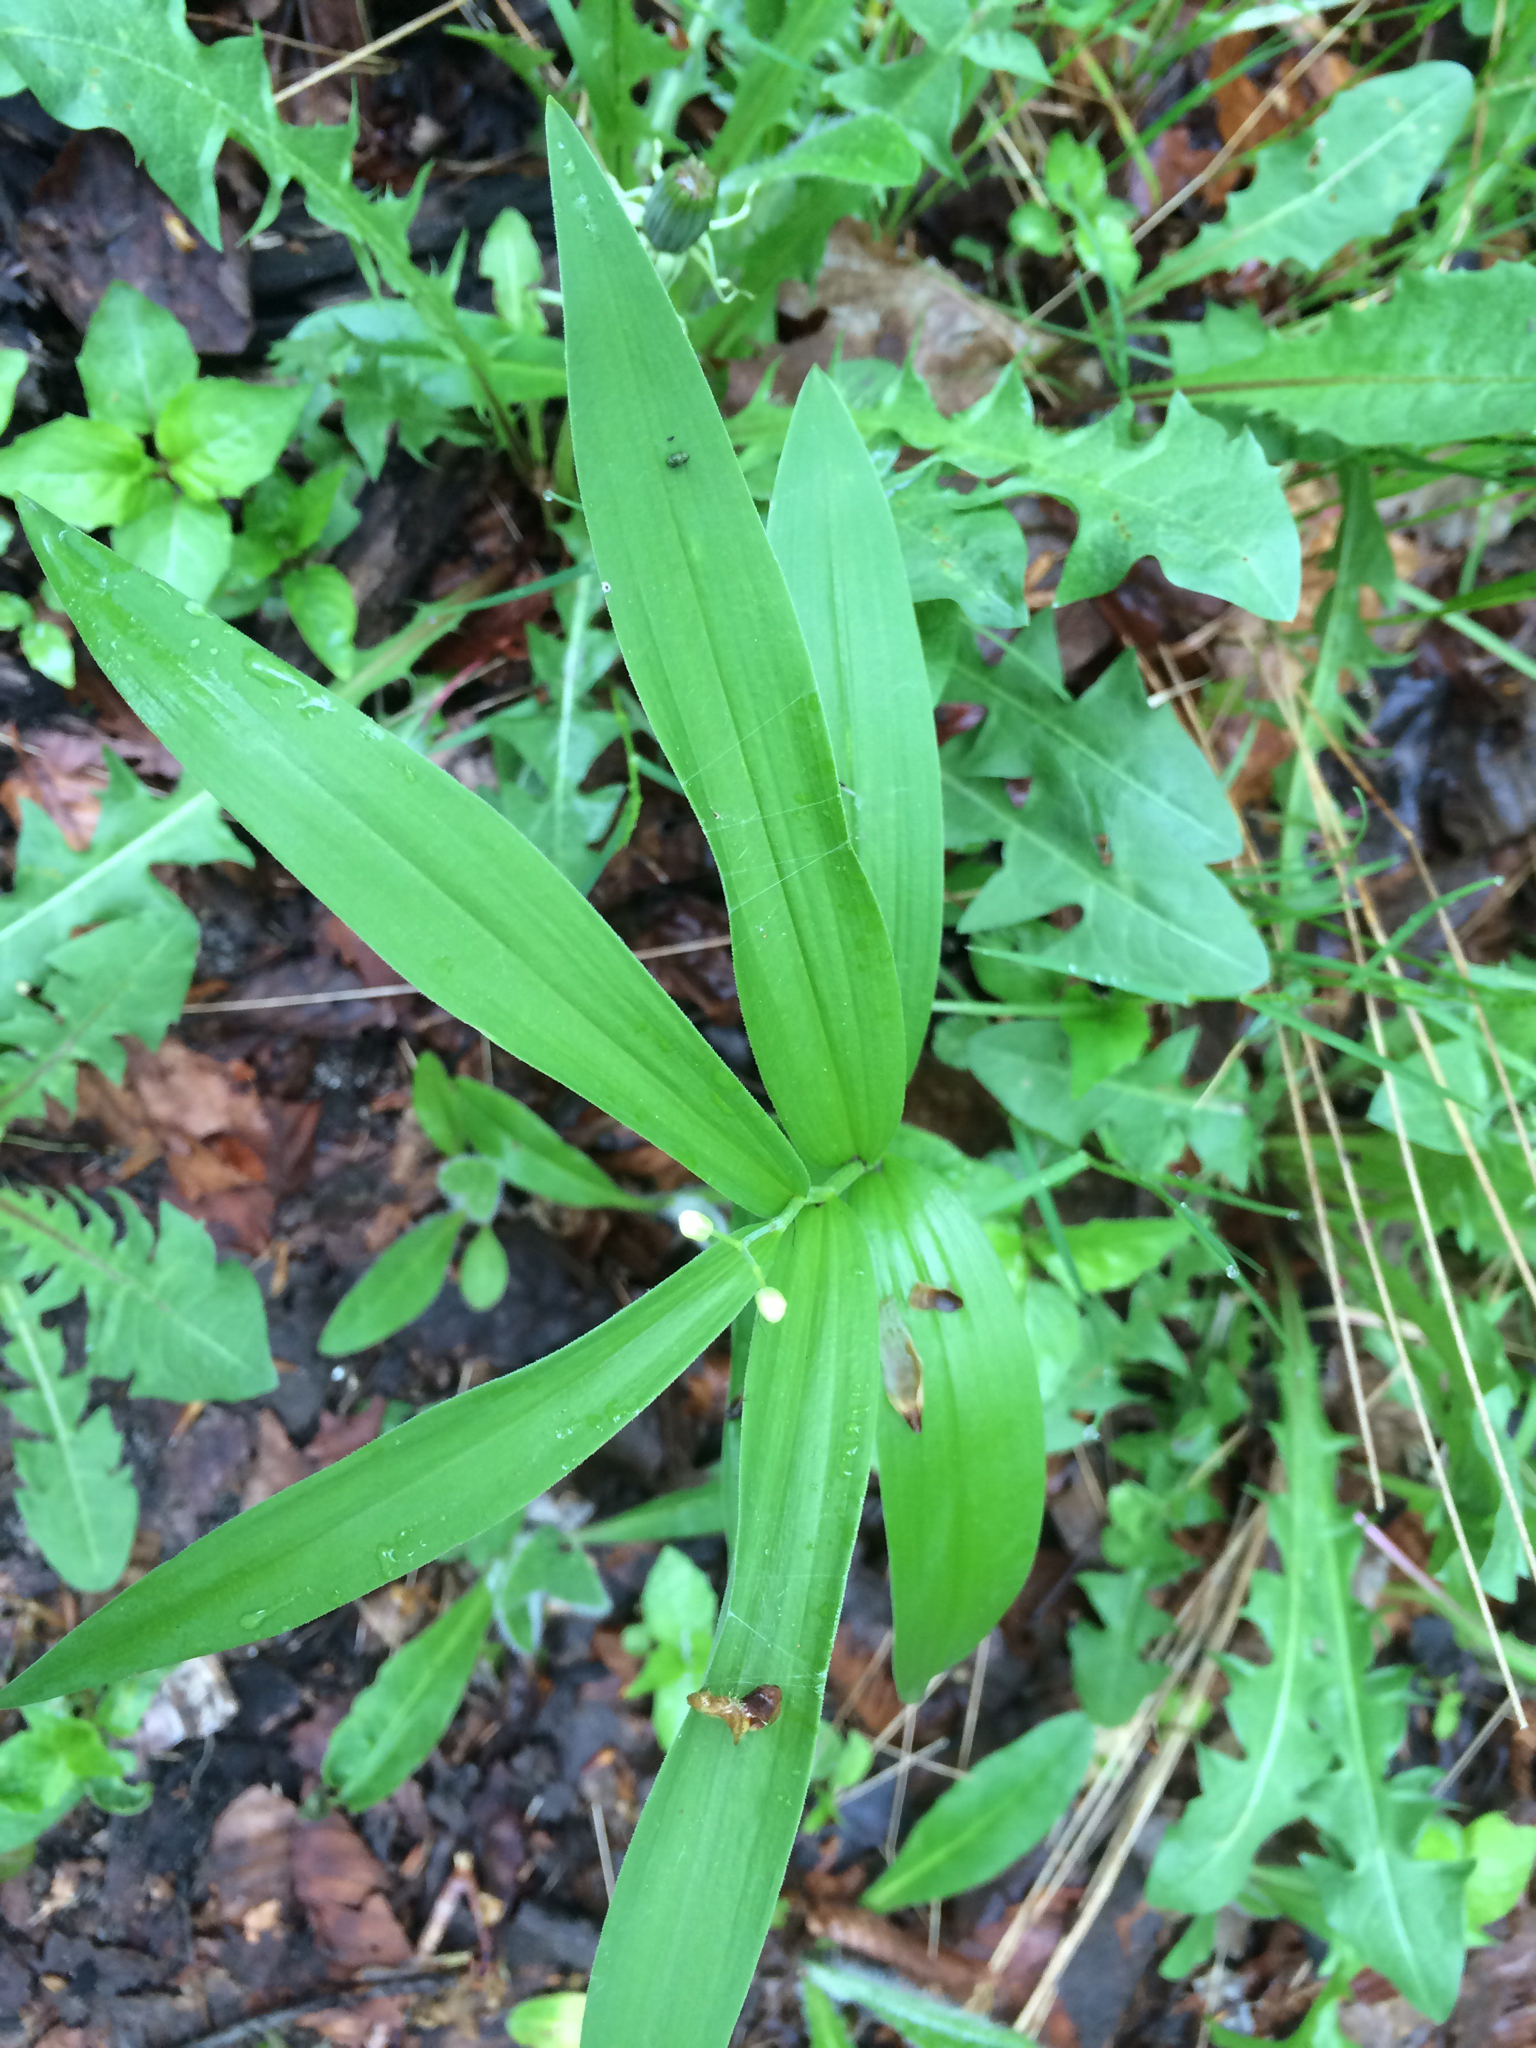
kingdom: Plantae
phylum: Tracheophyta
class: Liliopsida
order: Asparagales
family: Asparagaceae
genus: Maianthemum
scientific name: Maianthemum stellatum
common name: Little false solomon's seal
